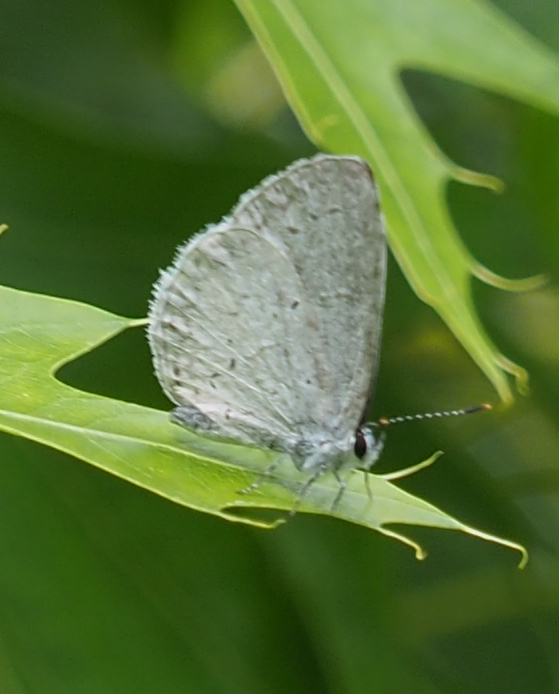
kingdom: Animalia
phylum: Arthropoda
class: Insecta
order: Lepidoptera
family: Lycaenidae
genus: Cyaniris
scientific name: Cyaniris neglecta
